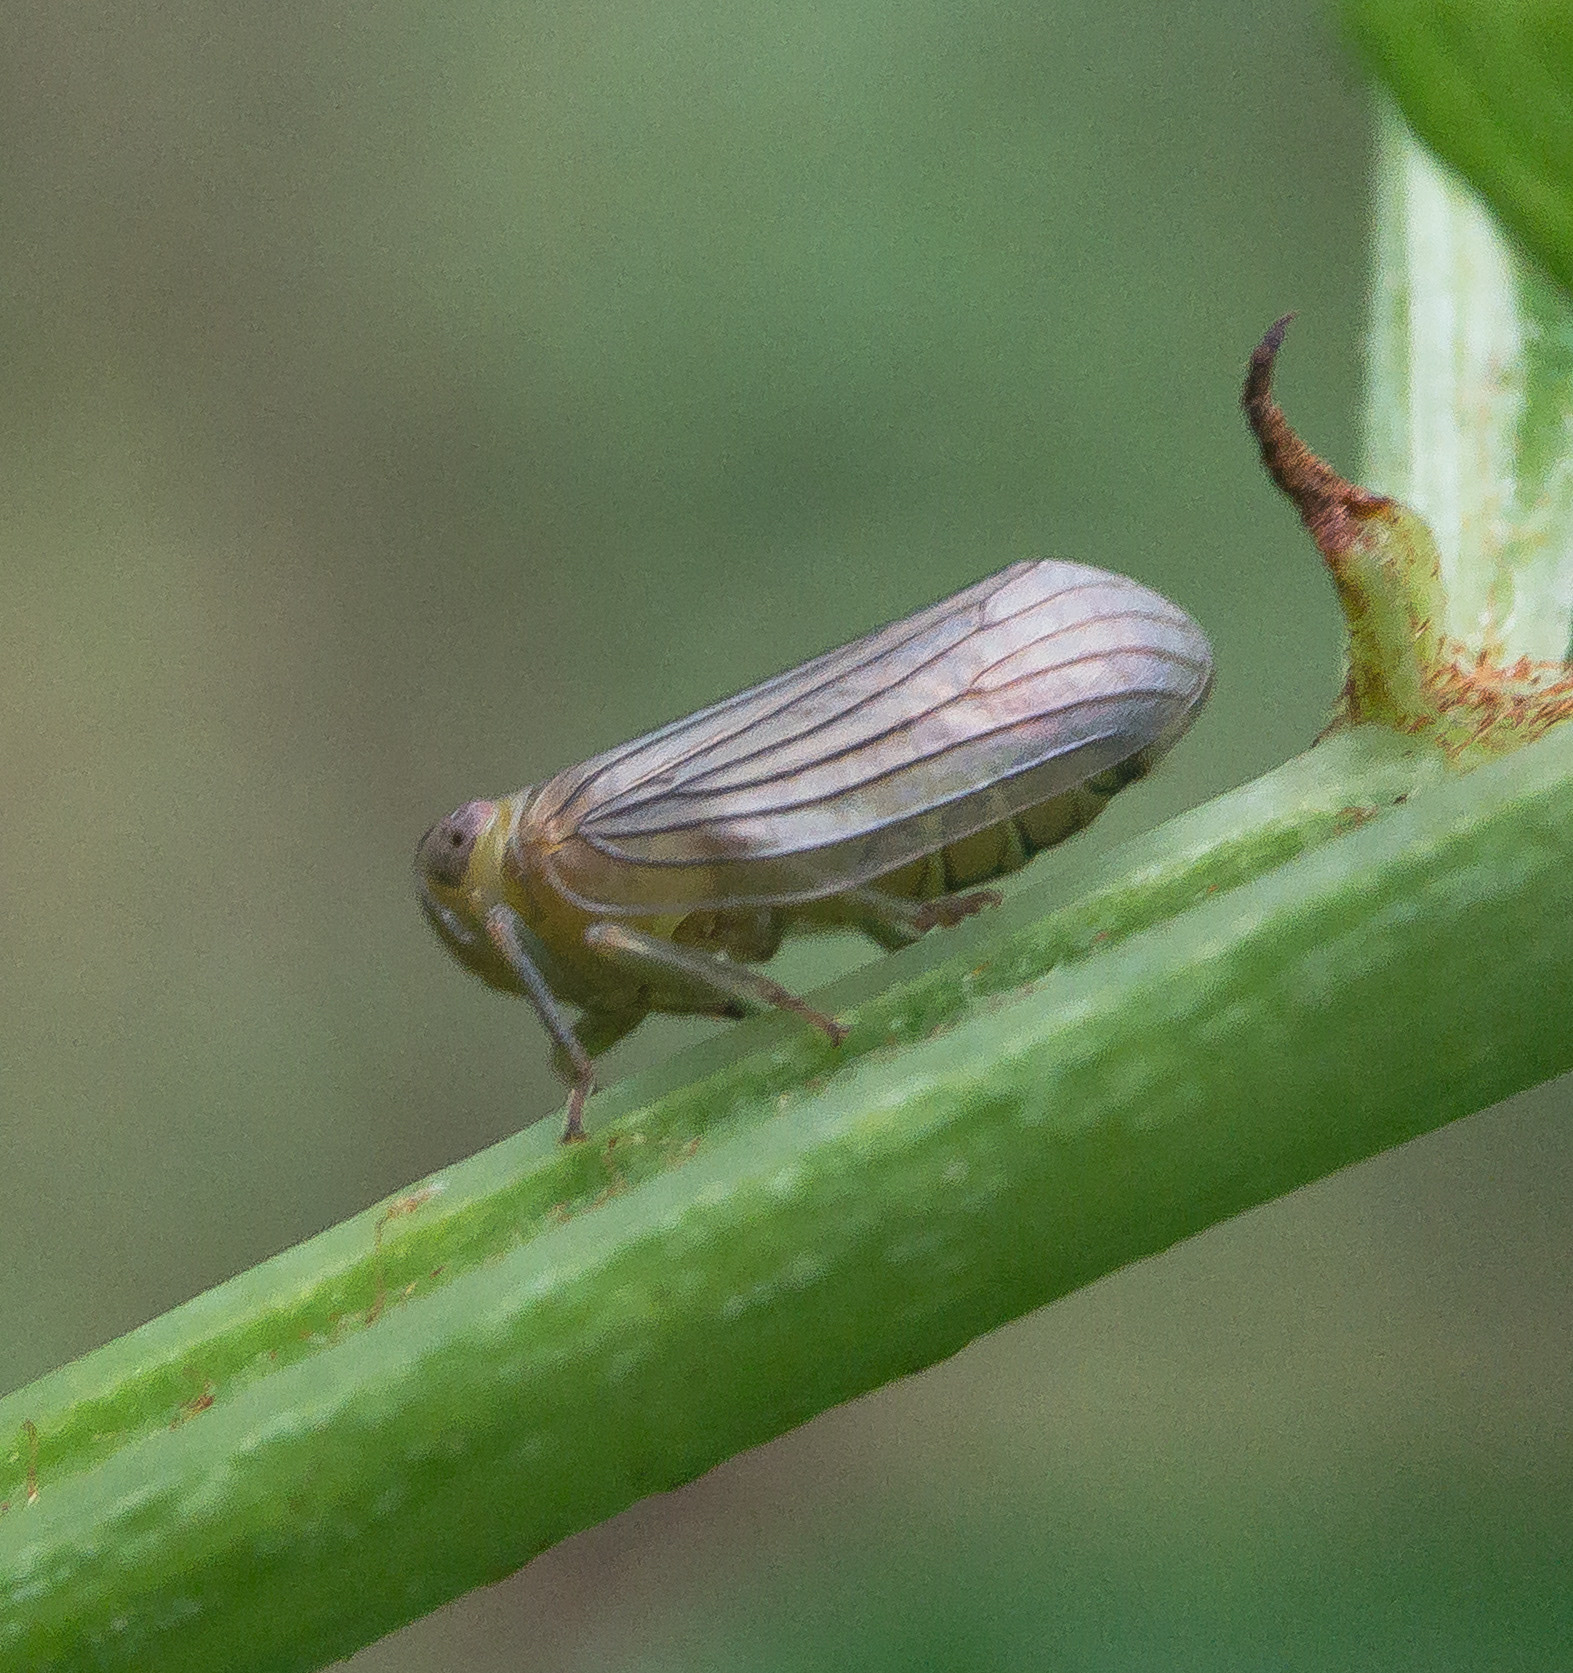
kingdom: Animalia
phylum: Arthropoda
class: Insecta
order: Hemiptera
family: Issidae
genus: Aplos
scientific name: Aplos simplex
